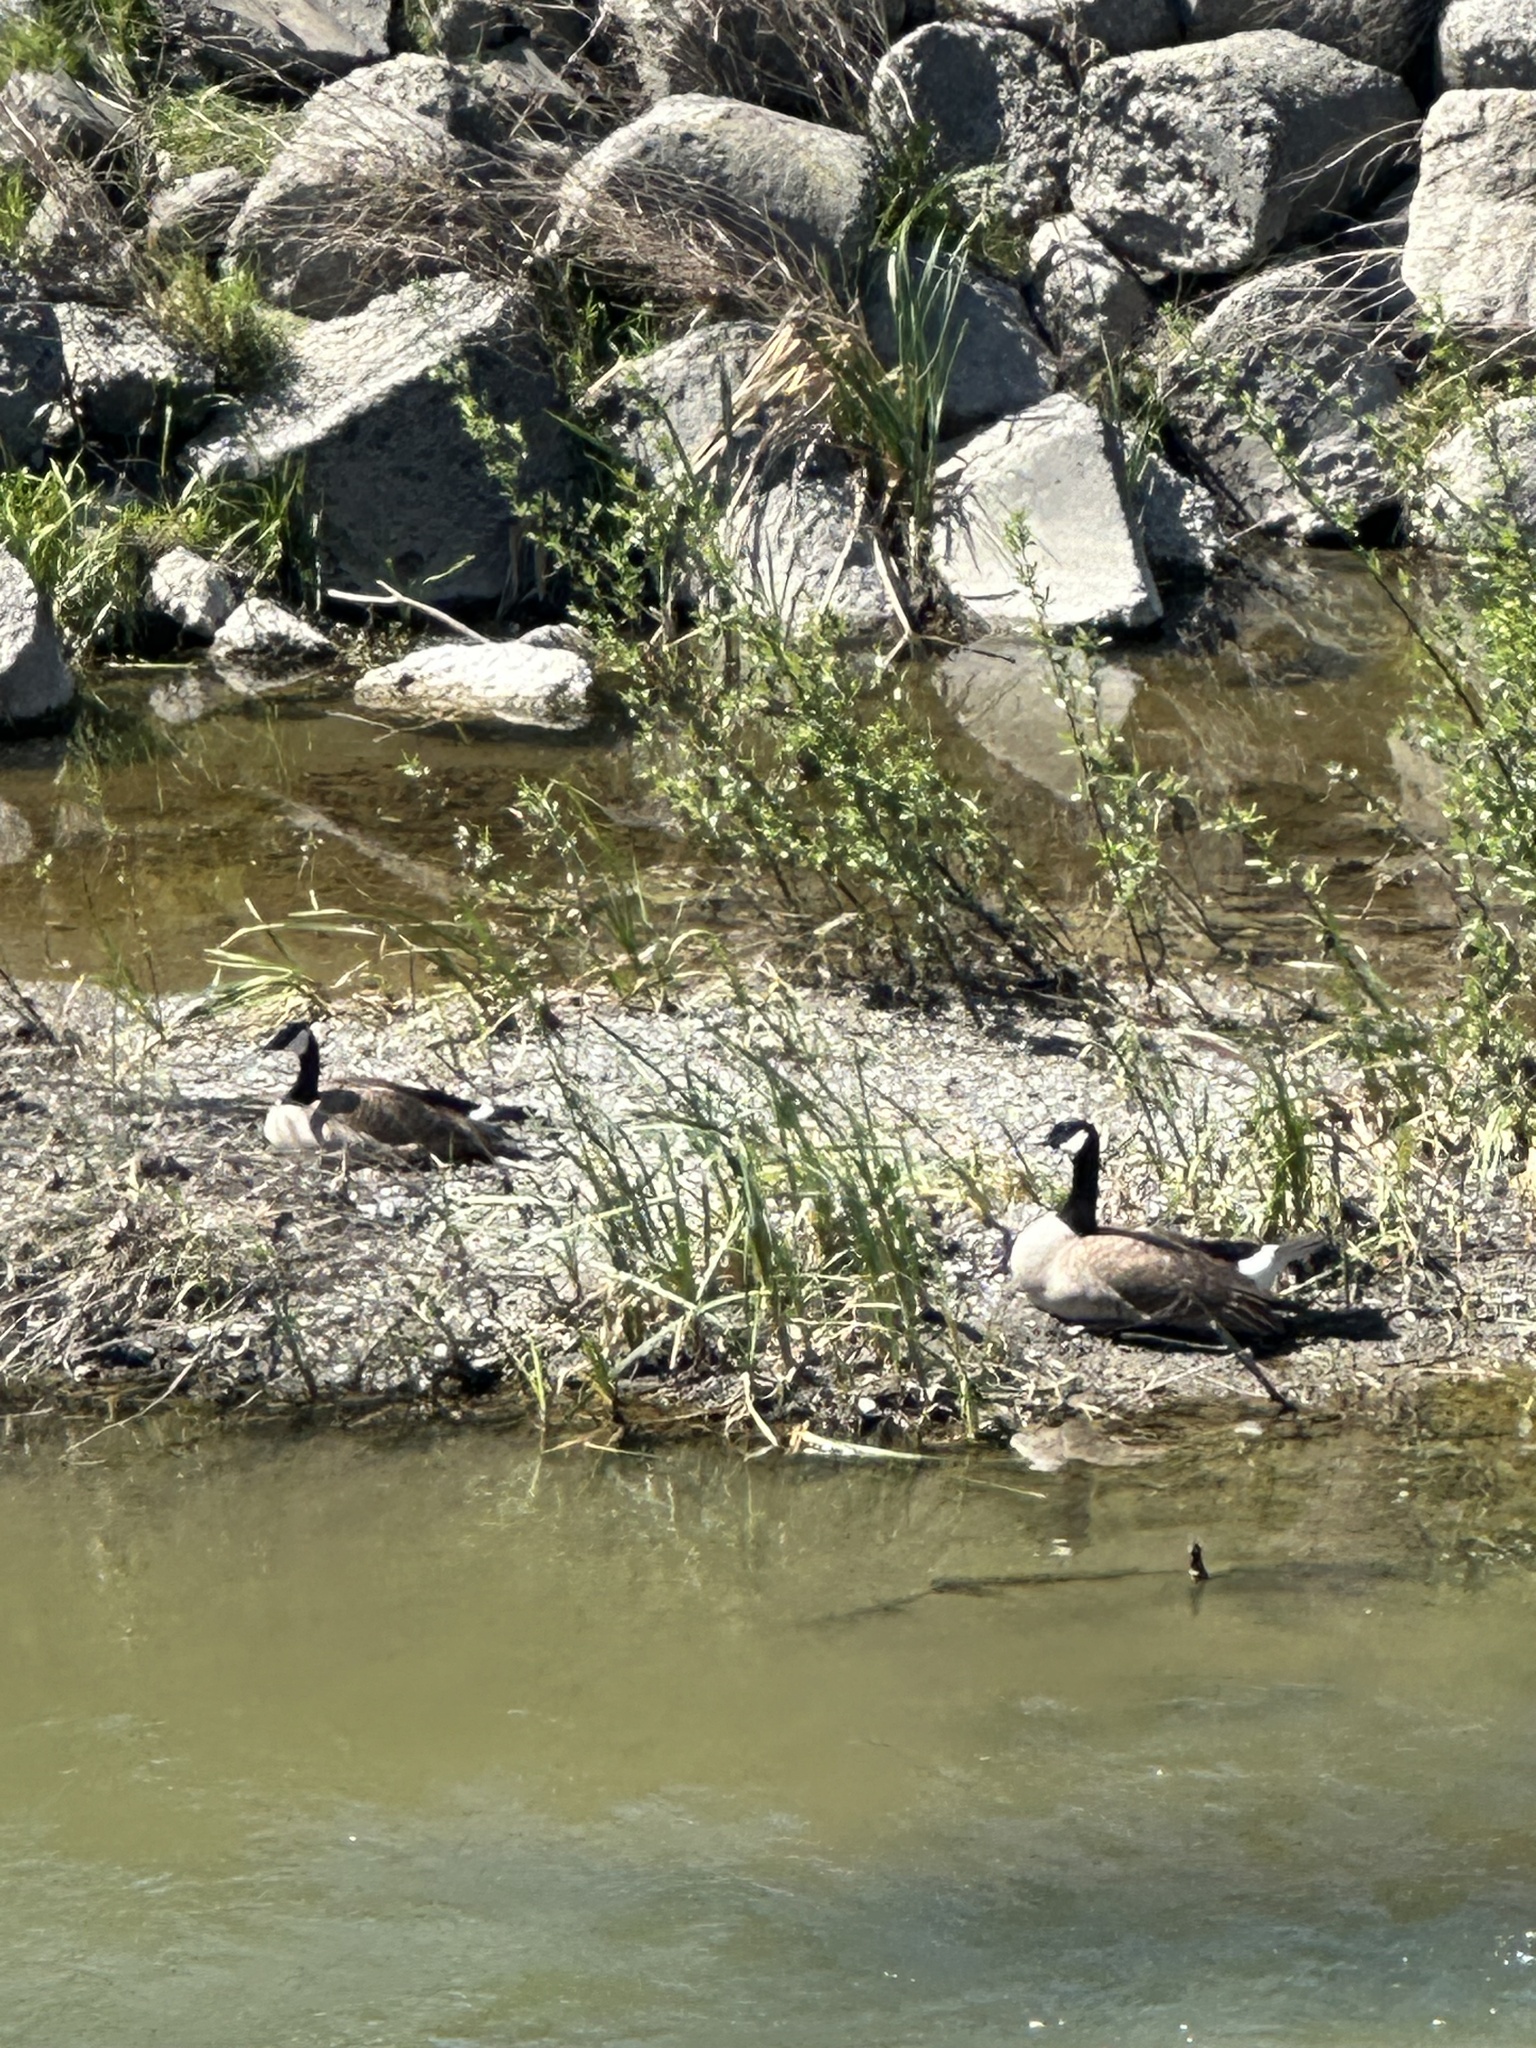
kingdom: Animalia
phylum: Chordata
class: Aves
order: Anseriformes
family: Anatidae
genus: Branta
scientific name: Branta canadensis
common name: Canada goose
